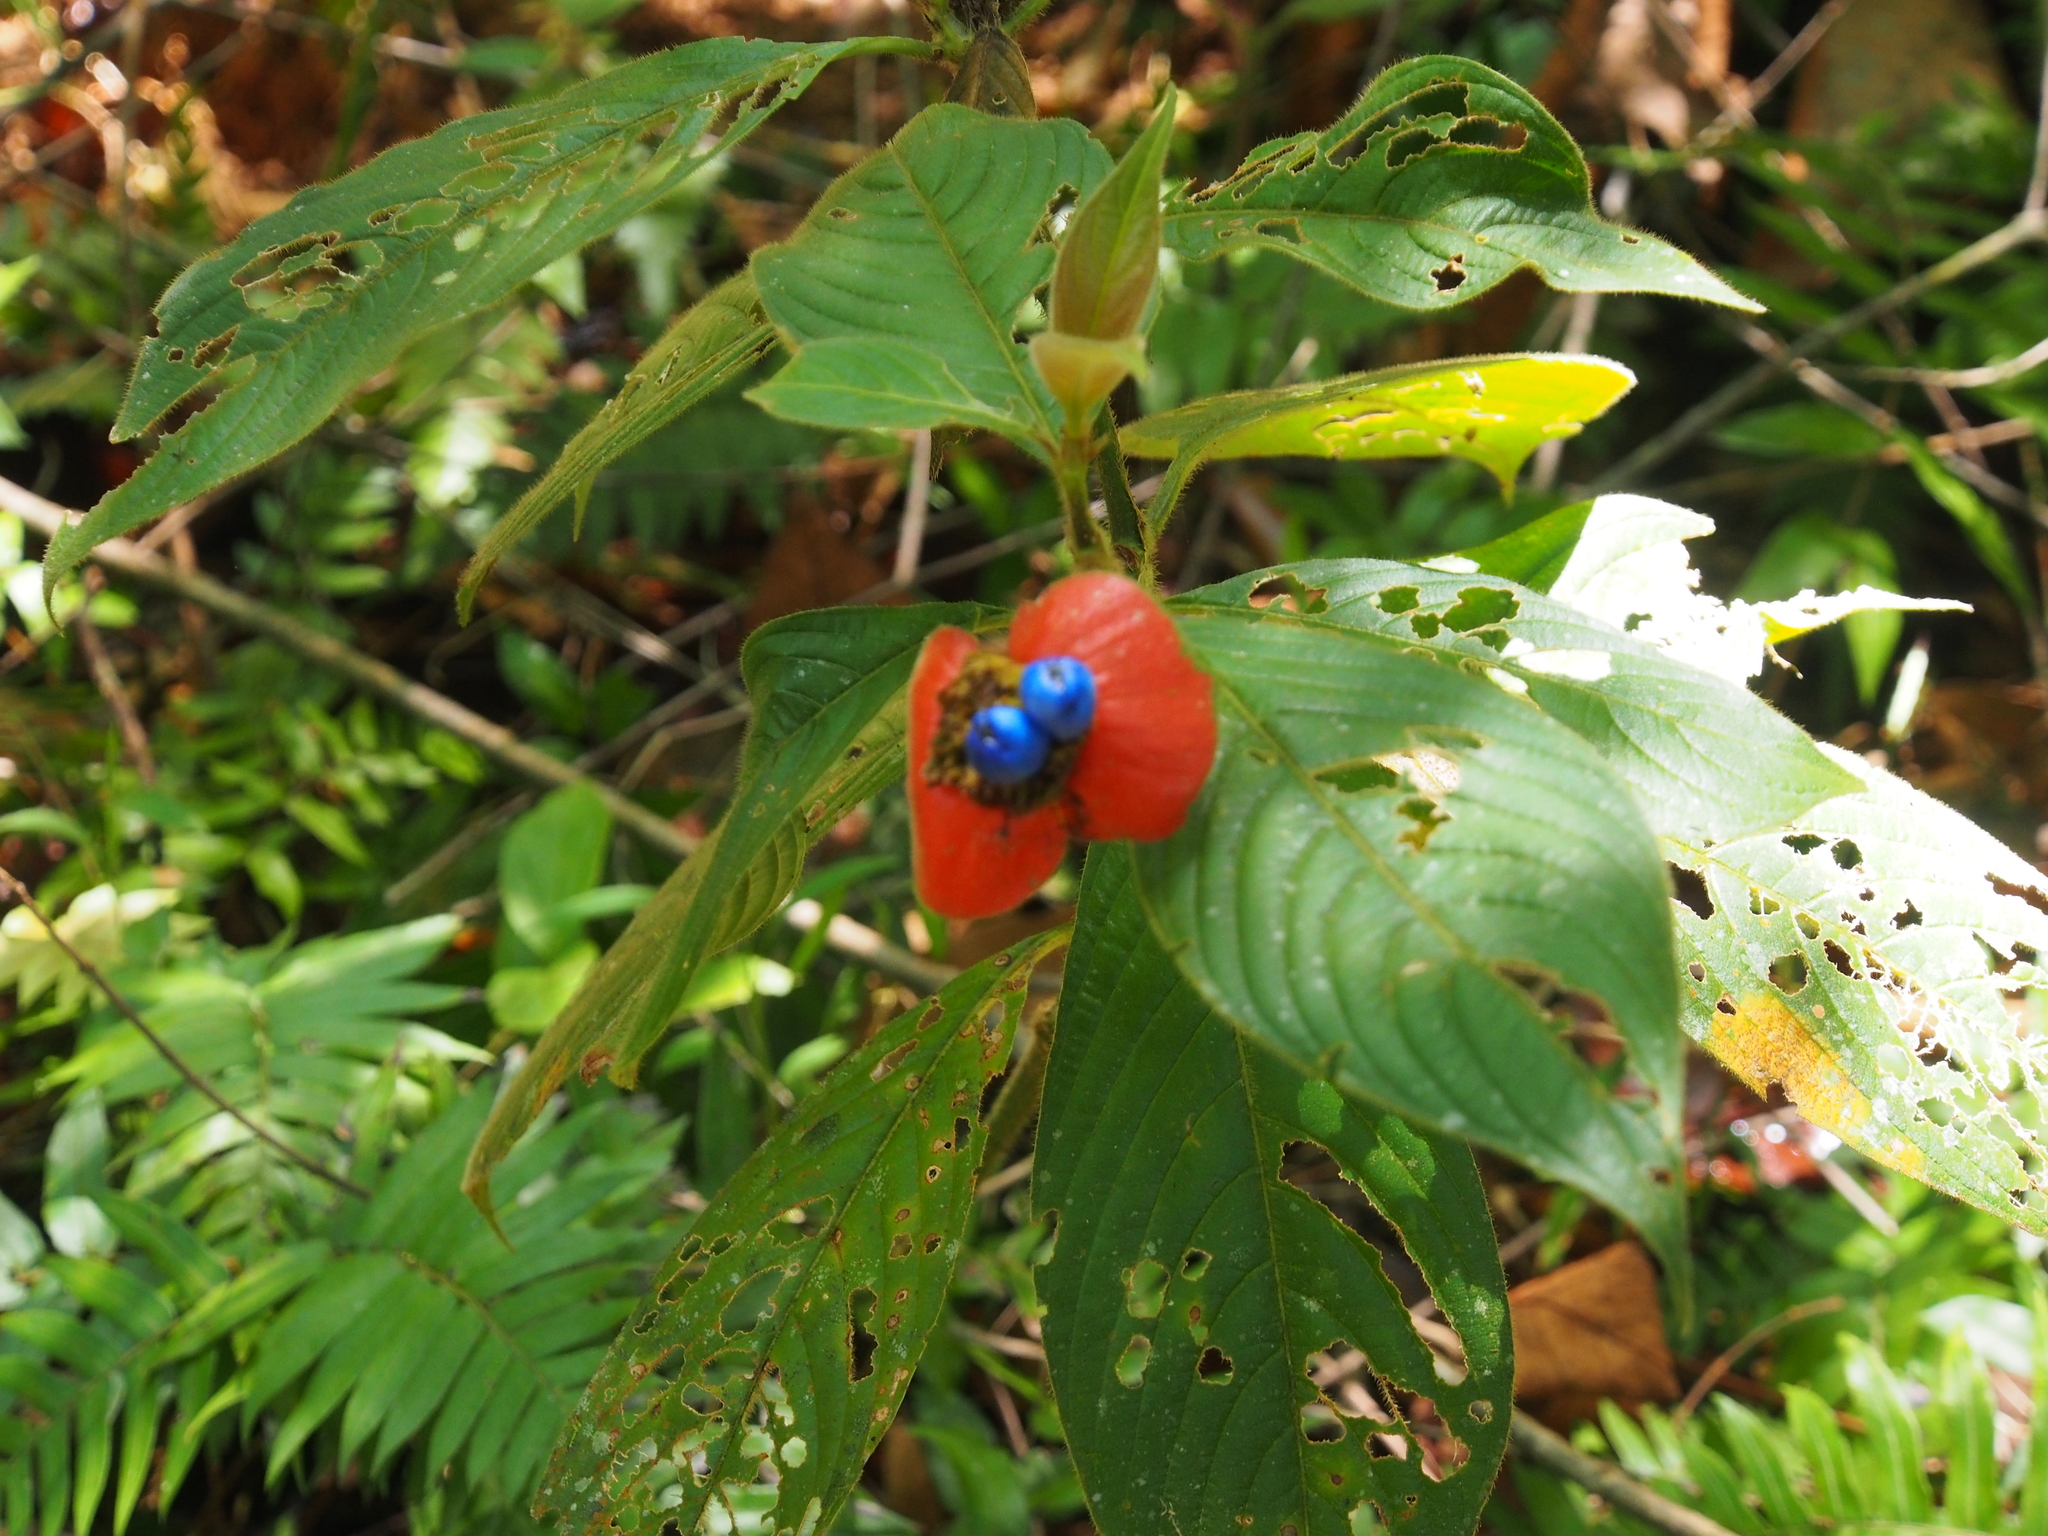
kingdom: Plantae
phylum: Tracheophyta
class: Magnoliopsida
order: Gentianales
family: Rubiaceae
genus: Palicourea
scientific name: Palicourea tomentosa
